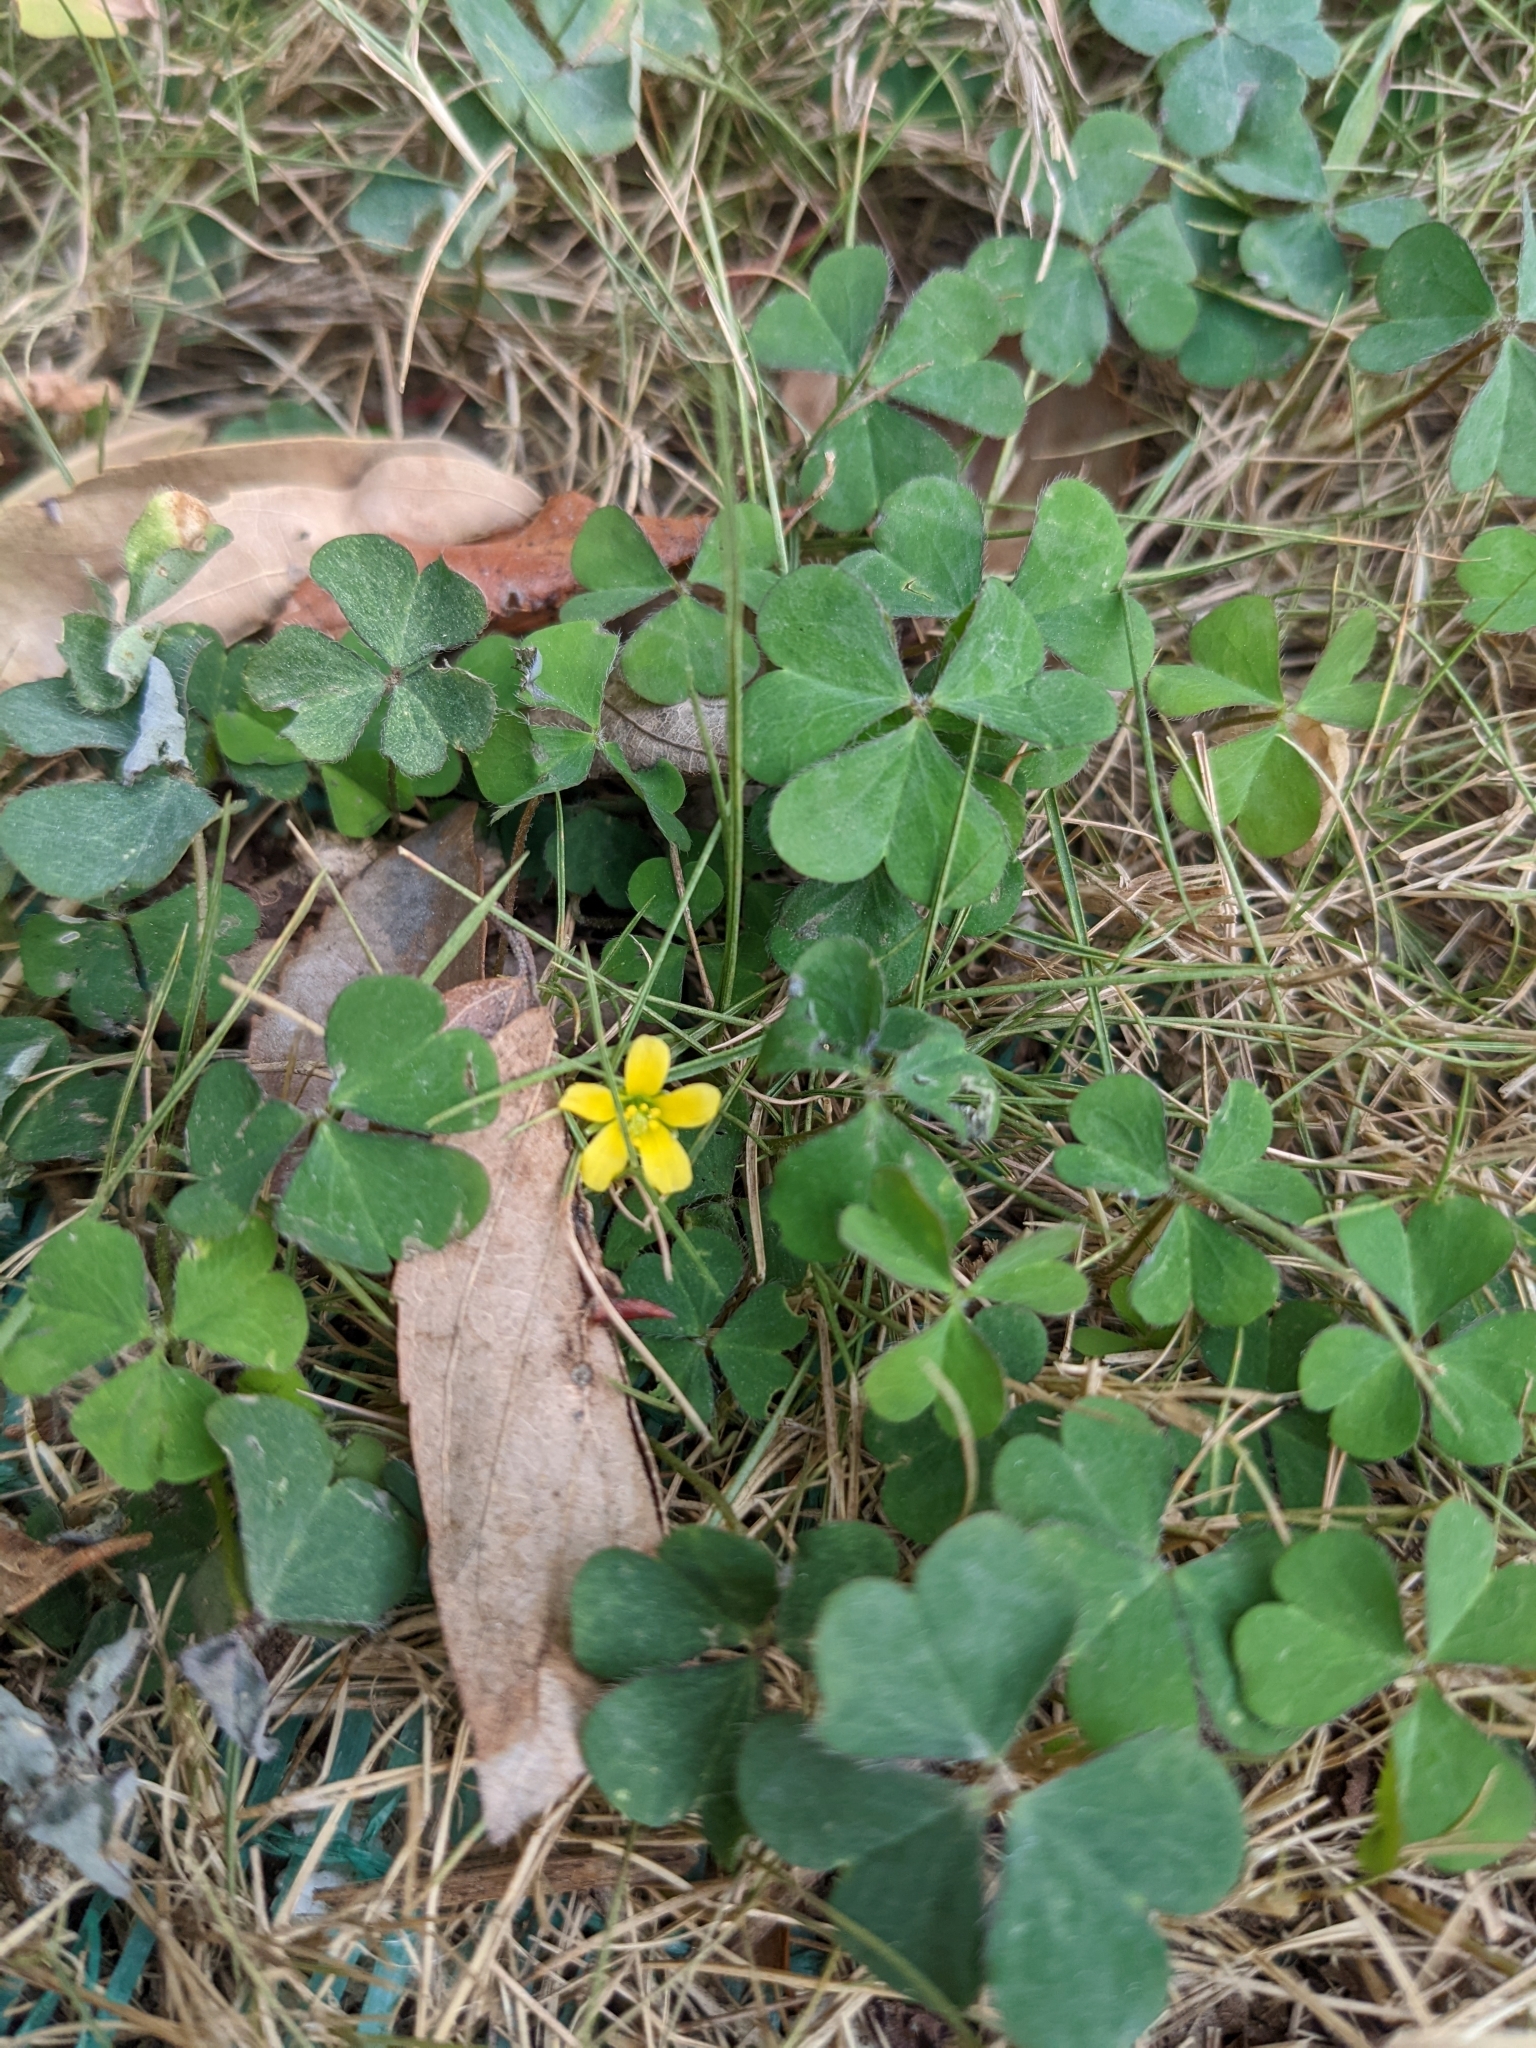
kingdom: Plantae
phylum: Tracheophyta
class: Magnoliopsida
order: Oxalidales
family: Oxalidaceae
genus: Oxalis
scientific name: Oxalis corniculata
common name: Procumbent yellow-sorrel
